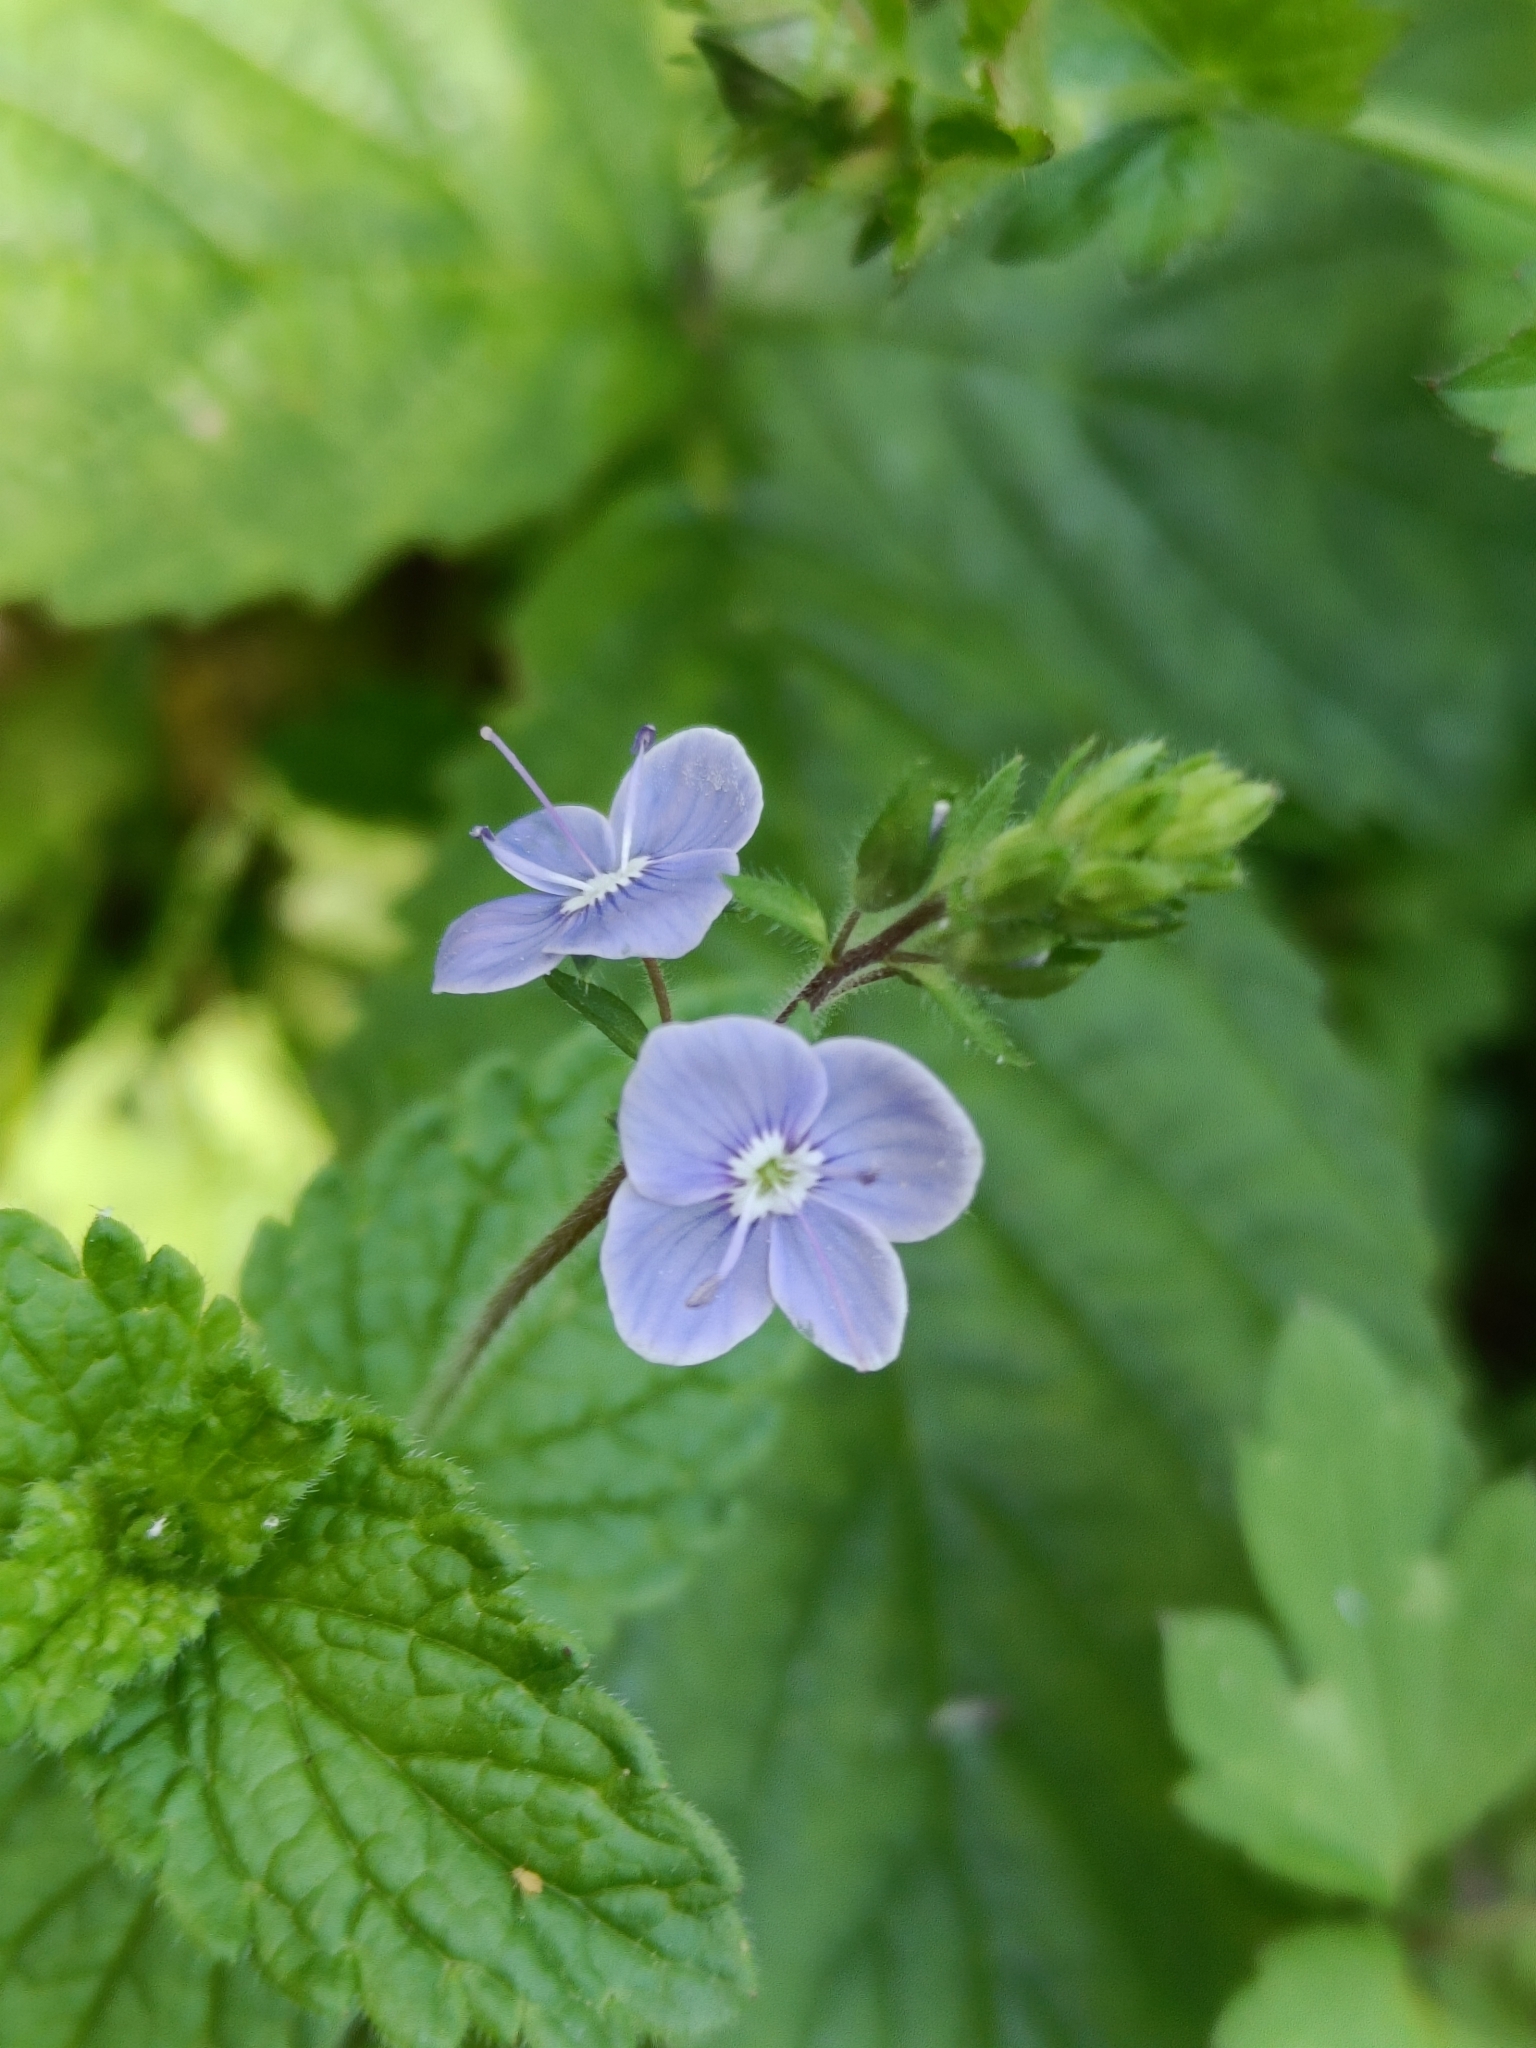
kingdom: Plantae
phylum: Tracheophyta
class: Magnoliopsida
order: Lamiales
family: Plantaginaceae
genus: Veronica
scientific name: Veronica chamaedrys
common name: Germander speedwell
